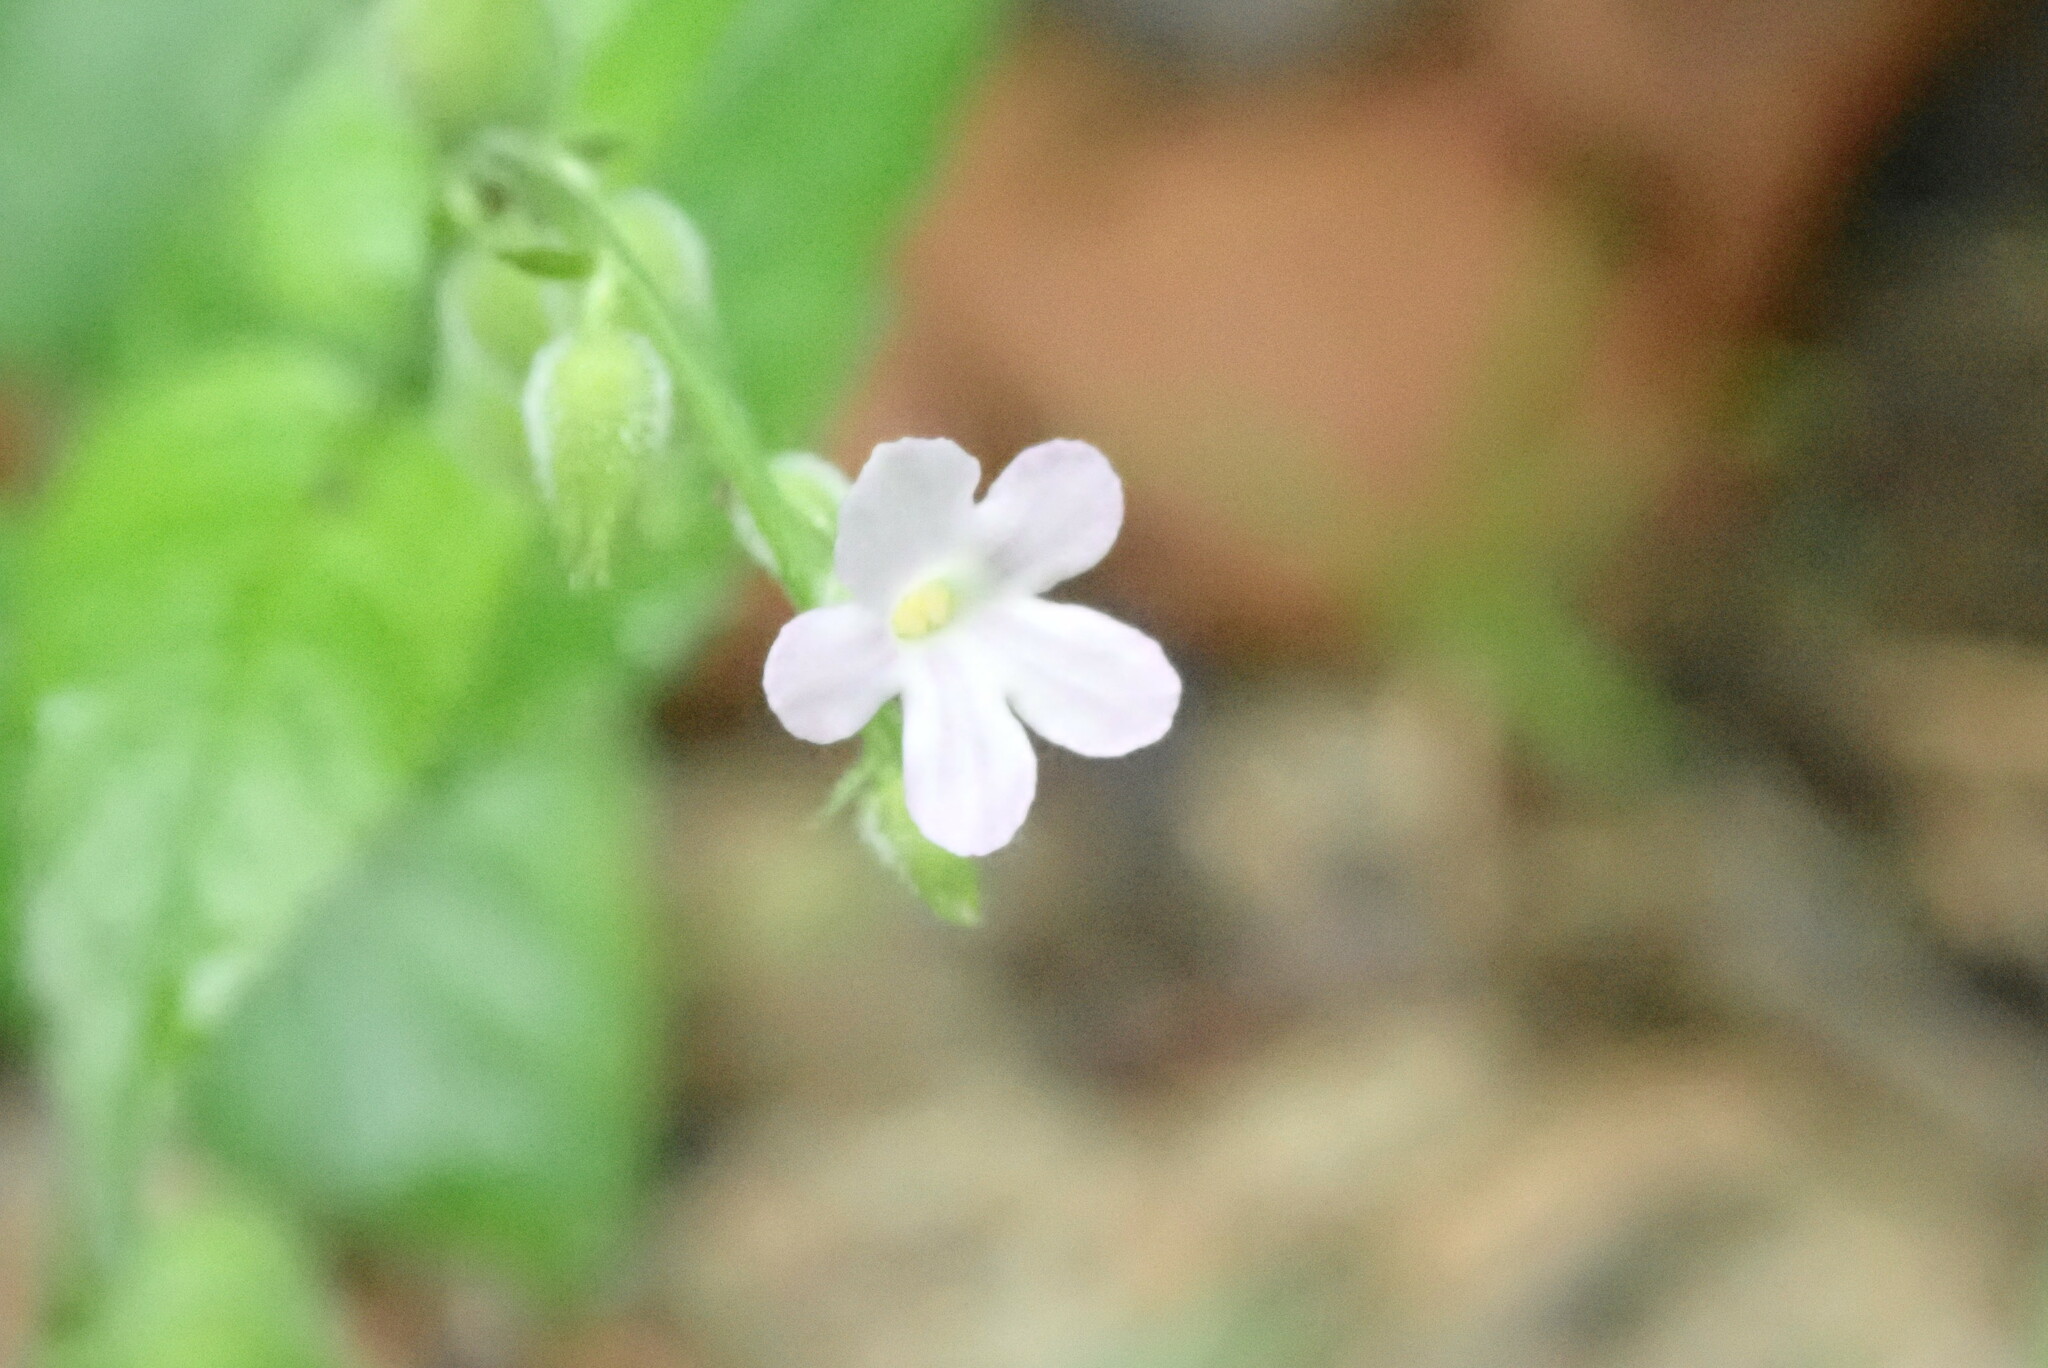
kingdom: Plantae
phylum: Tracheophyta
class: Magnoliopsida
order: Lamiales
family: Verbenaceae
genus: Priva
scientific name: Priva lappulacea
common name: Fasten-'pon-coat
